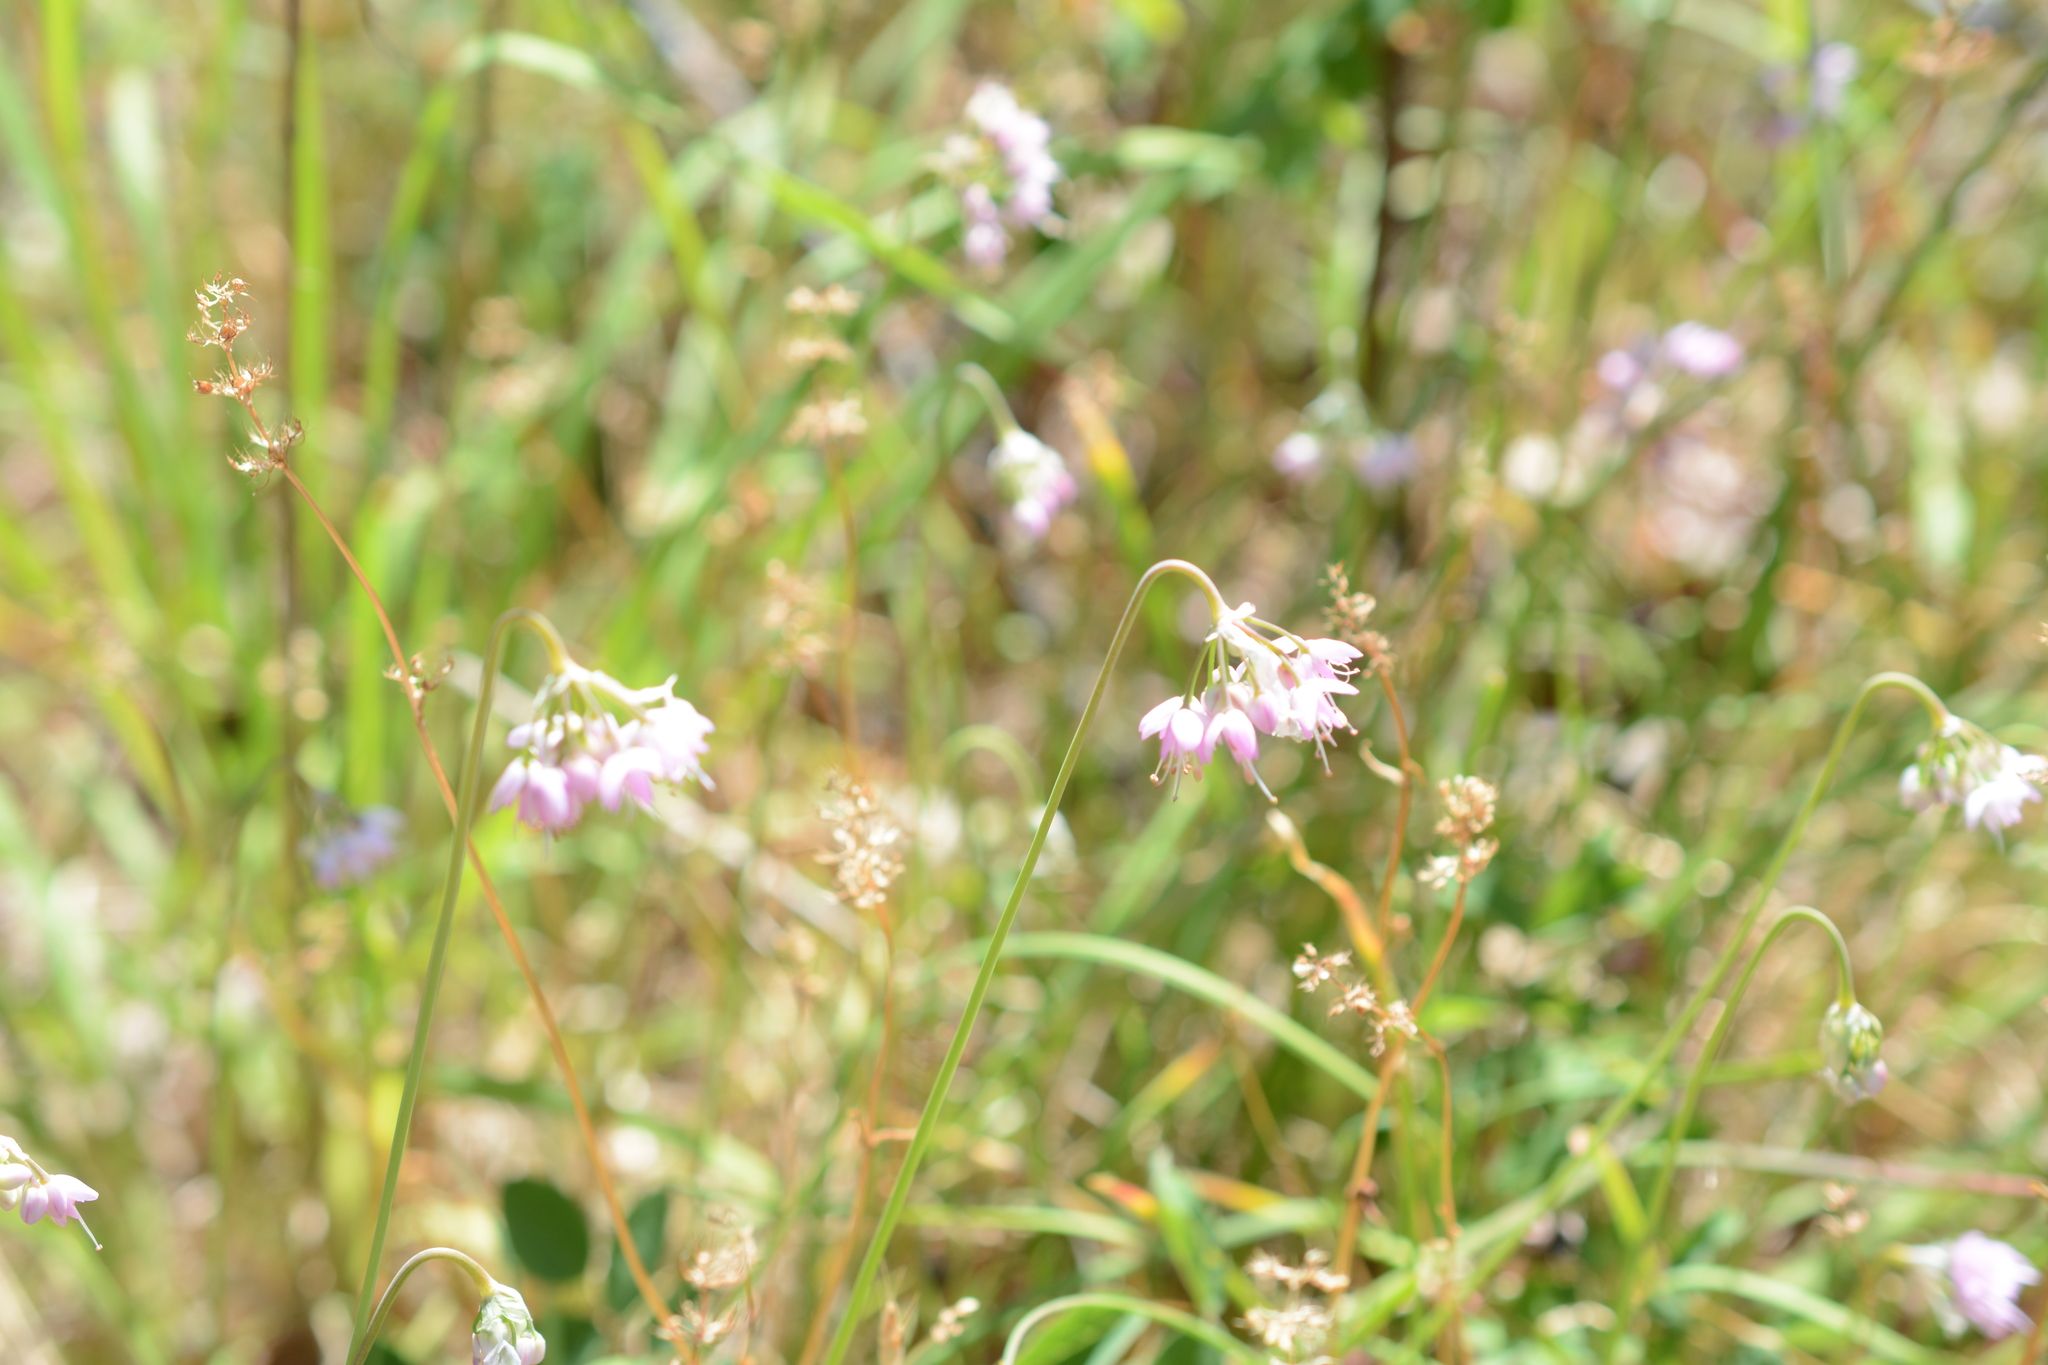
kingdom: Plantae
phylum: Tracheophyta
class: Liliopsida
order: Asparagales
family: Amaryllidaceae
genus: Allium
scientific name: Allium cernuum
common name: Nodding onion
